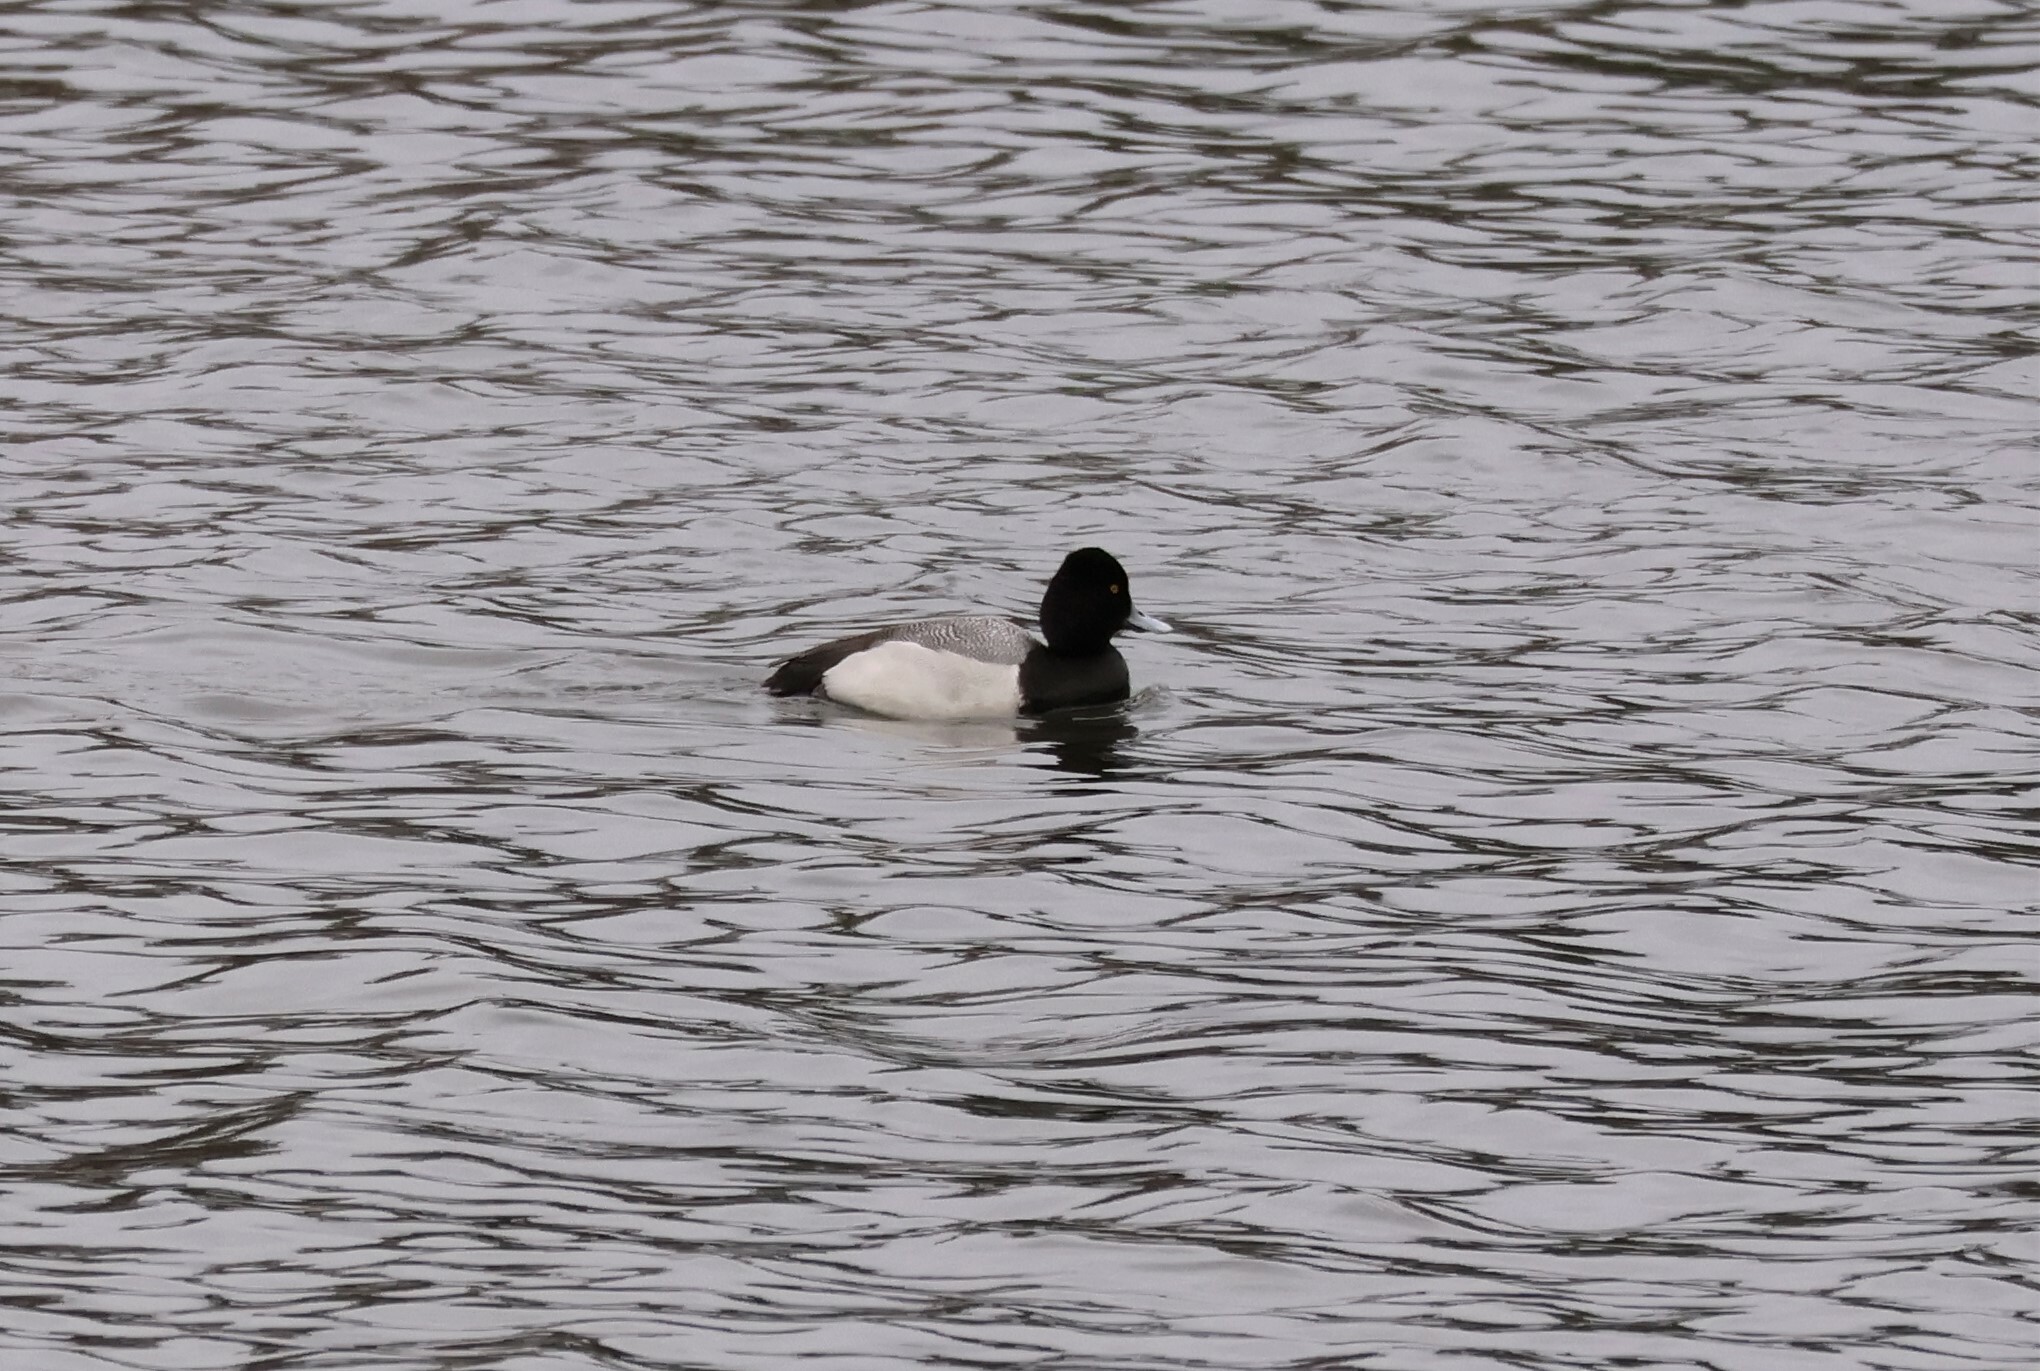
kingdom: Animalia
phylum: Chordata
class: Aves
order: Anseriformes
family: Anatidae
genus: Aythya
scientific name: Aythya affinis
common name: Lesser scaup
